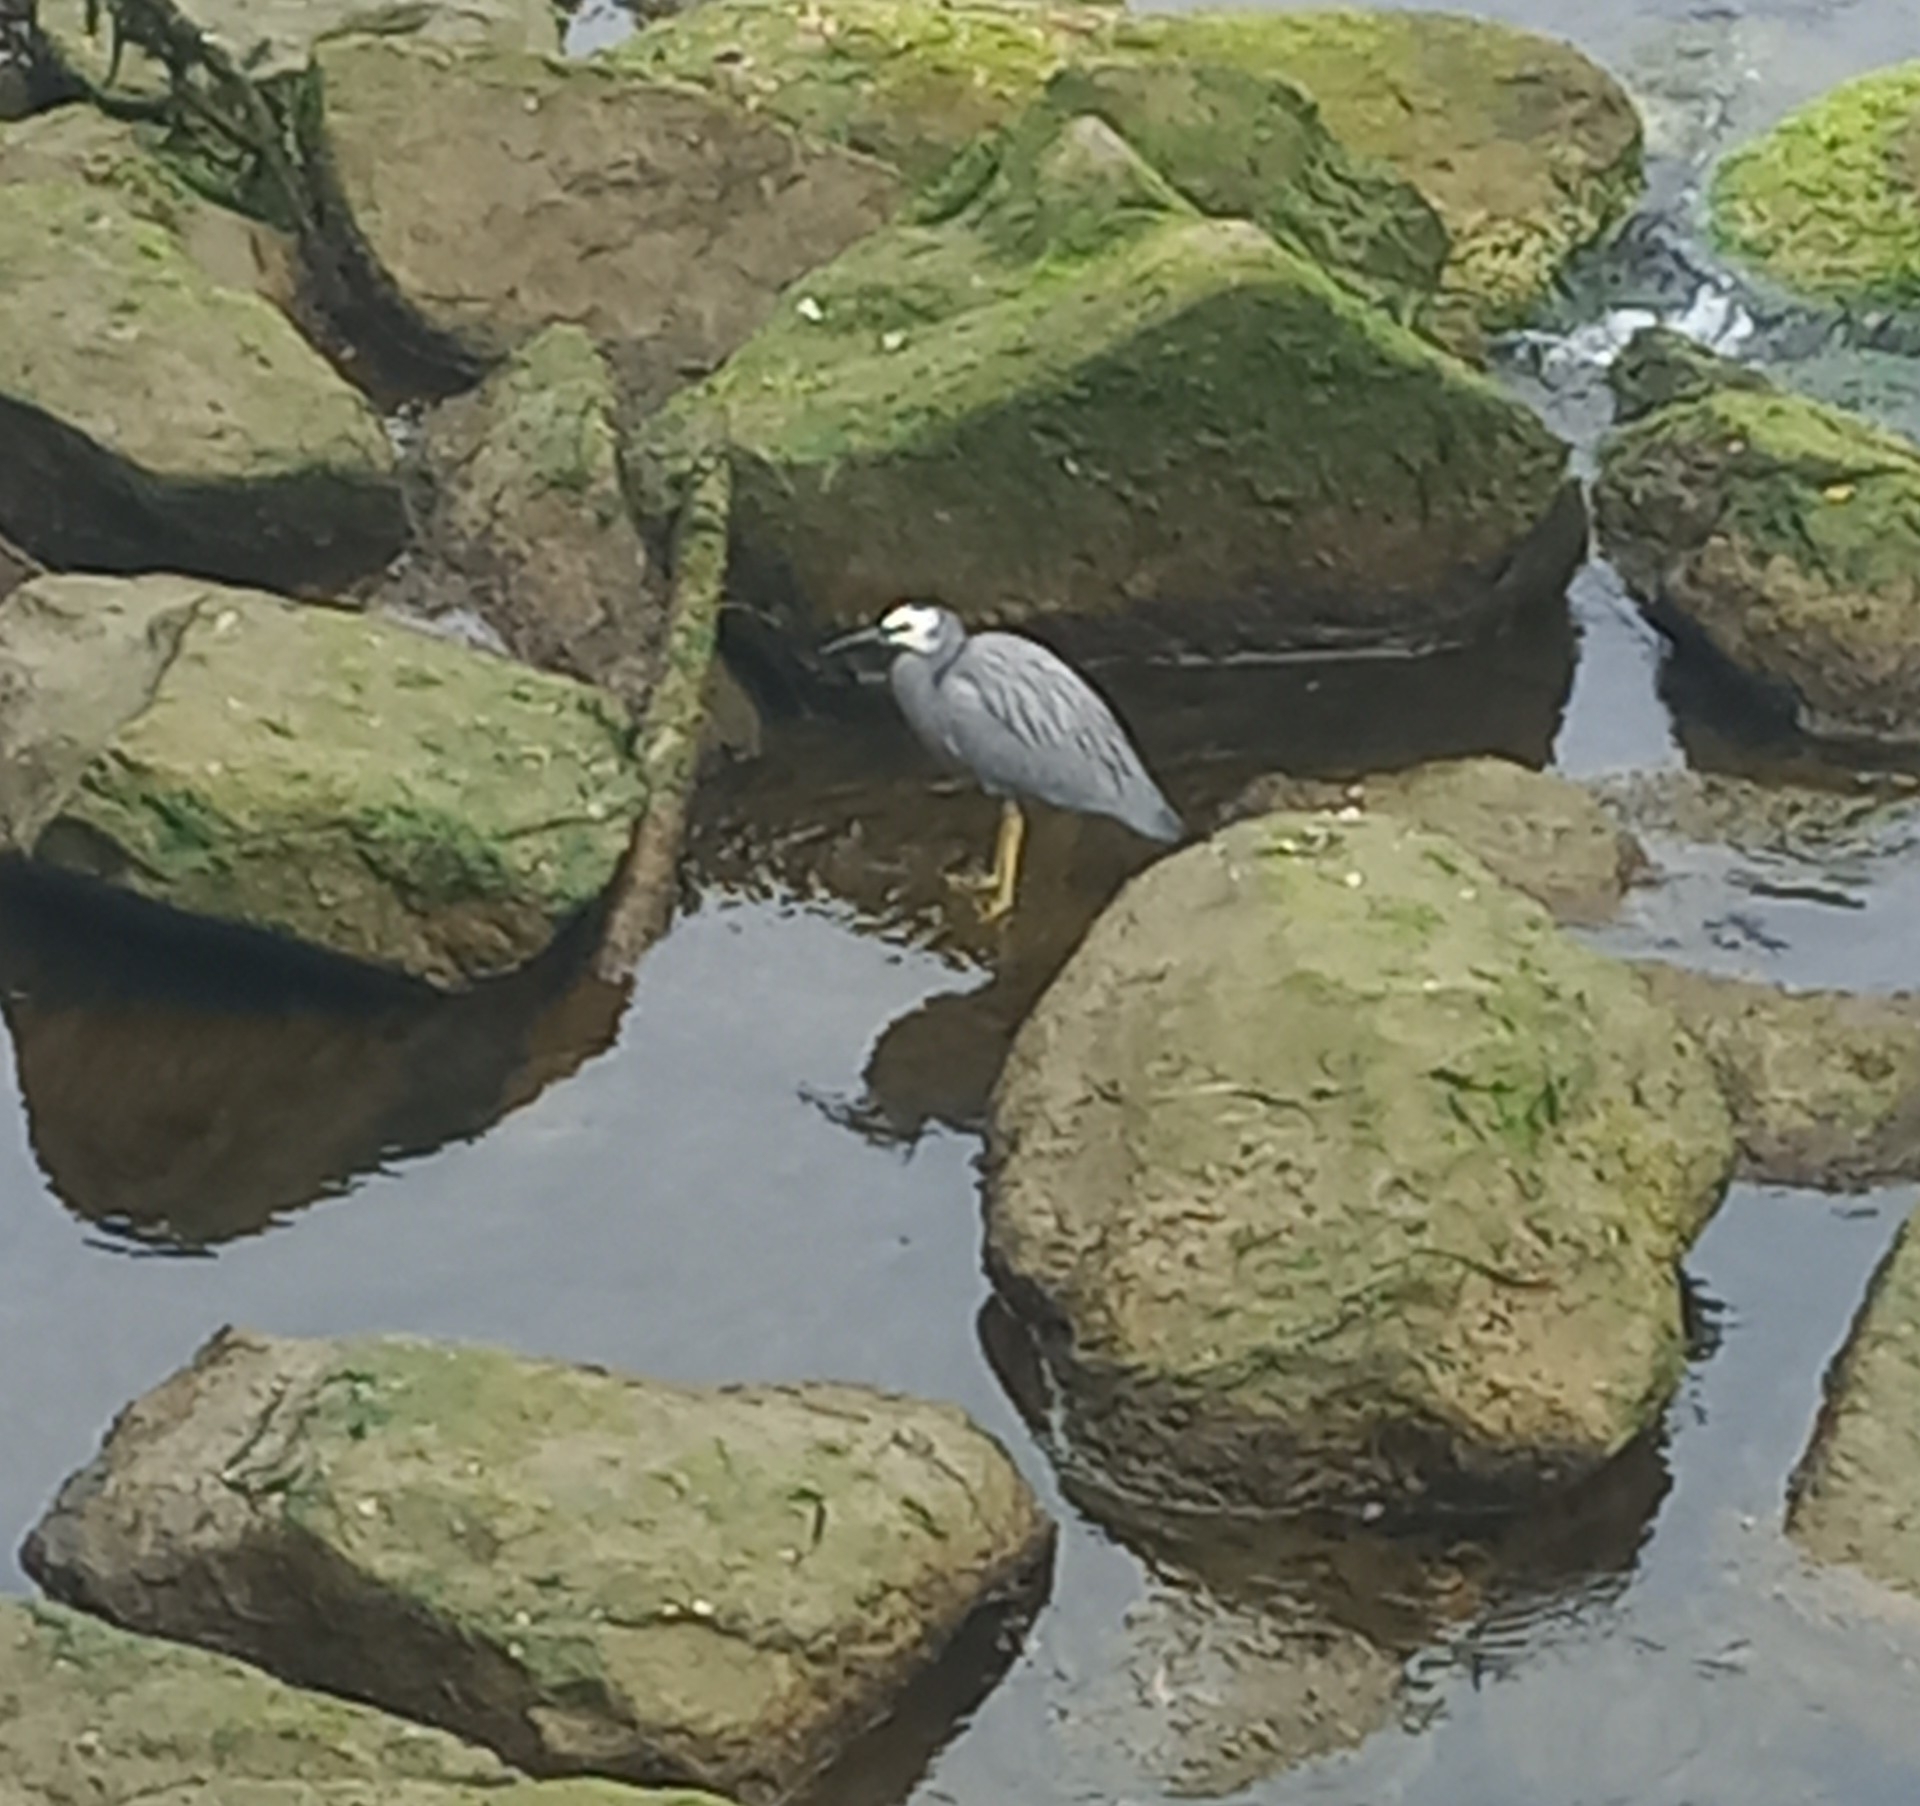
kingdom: Animalia
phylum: Chordata
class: Aves
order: Pelecaniformes
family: Ardeidae
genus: Egretta
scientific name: Egretta novaehollandiae
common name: White-faced heron
